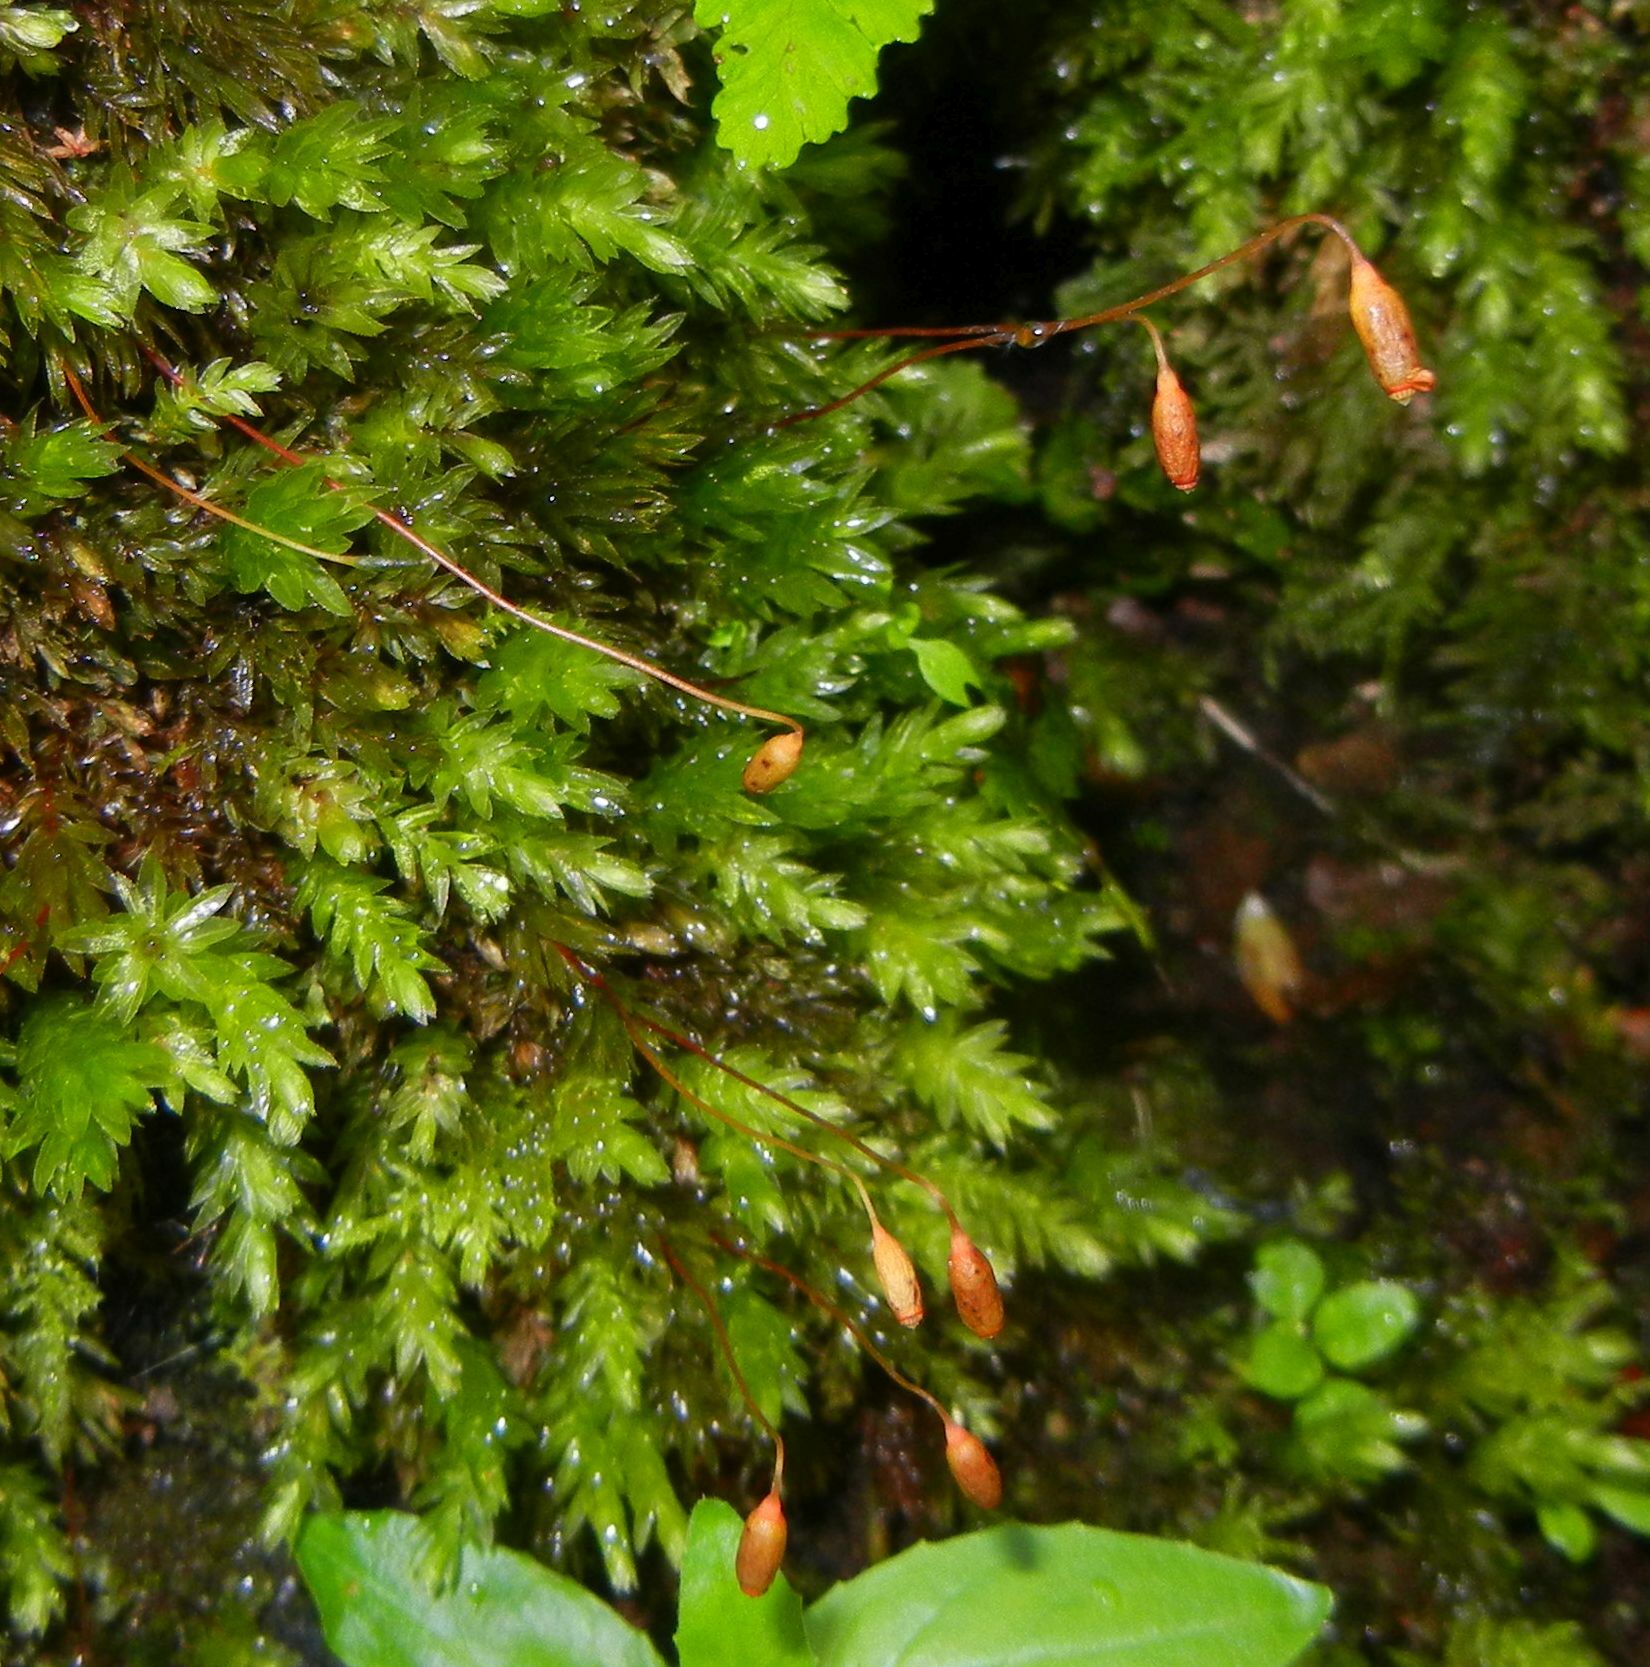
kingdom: Plantae
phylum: Bryophyta
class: Bryopsida
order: Bryales
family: Mniaceae
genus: Mnium
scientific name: Mnium hornum
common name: Swan's-neck leafy moss
